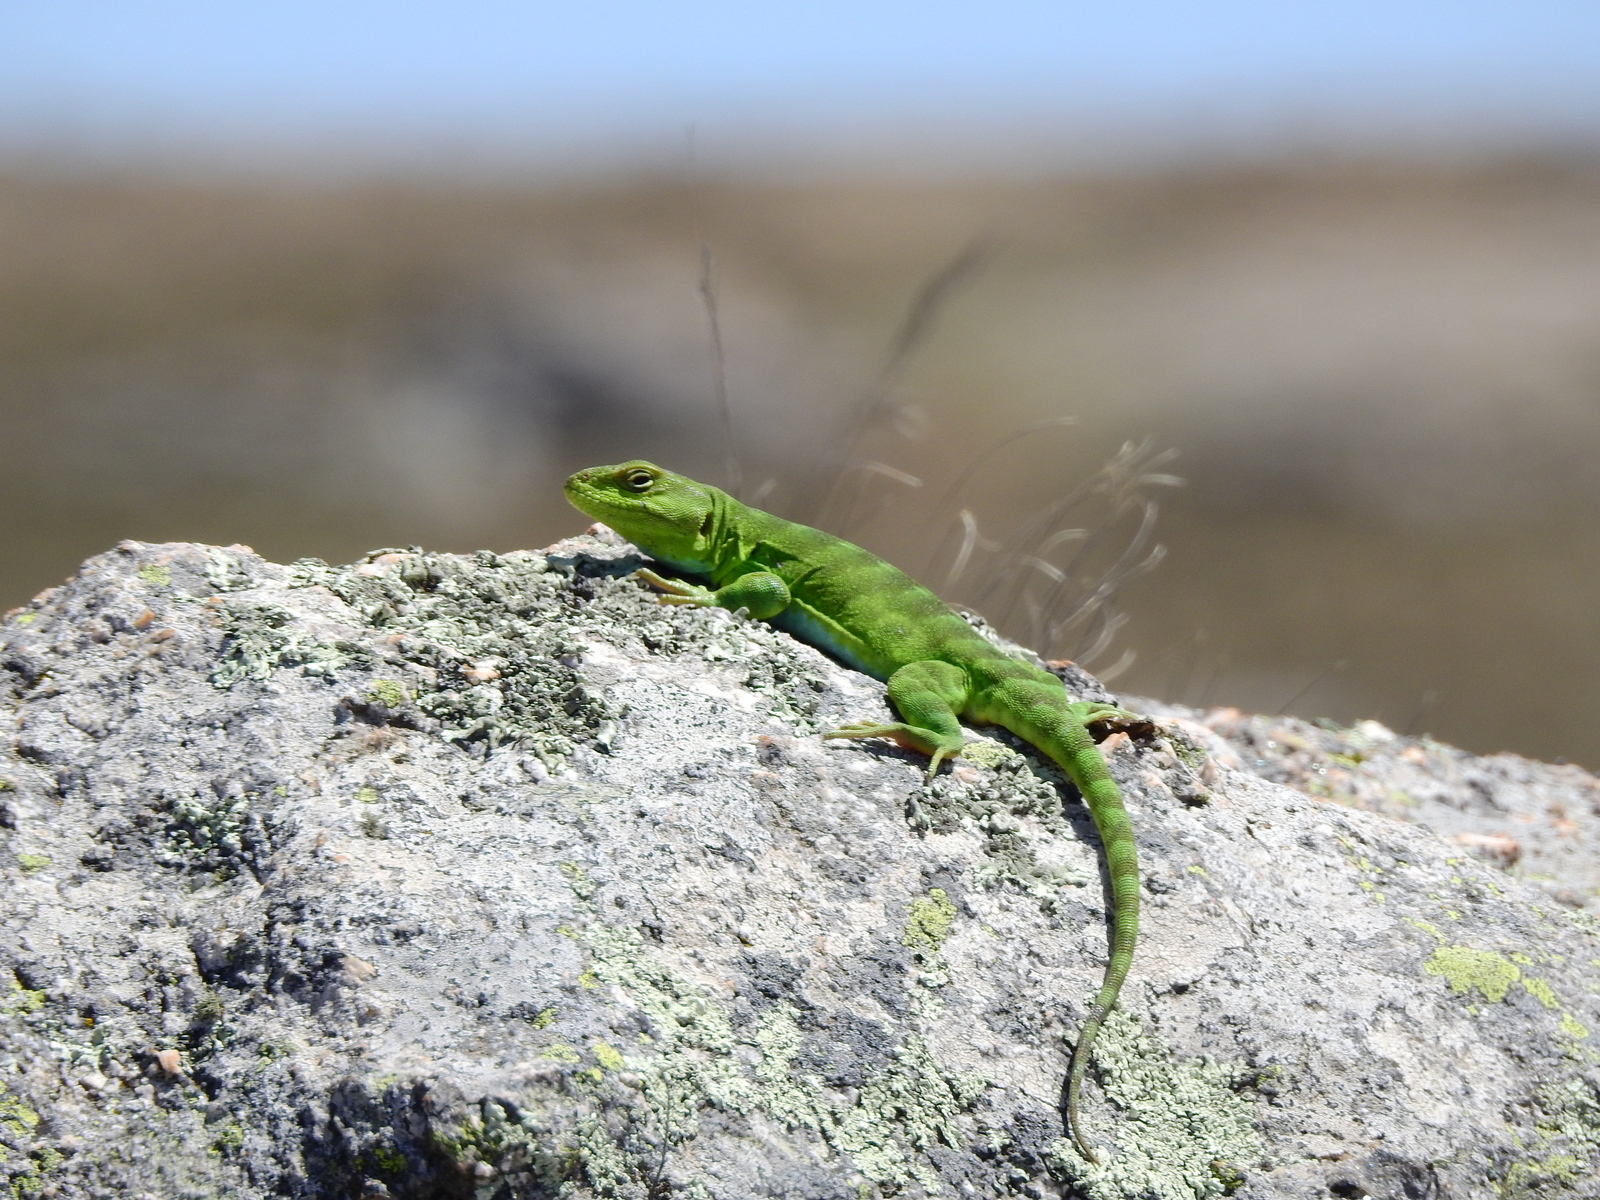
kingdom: Animalia
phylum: Chordata
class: Squamata
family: Leiosauridae
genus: Pristidactylus
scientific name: Pristidactylus achalensis
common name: Argentine anole
